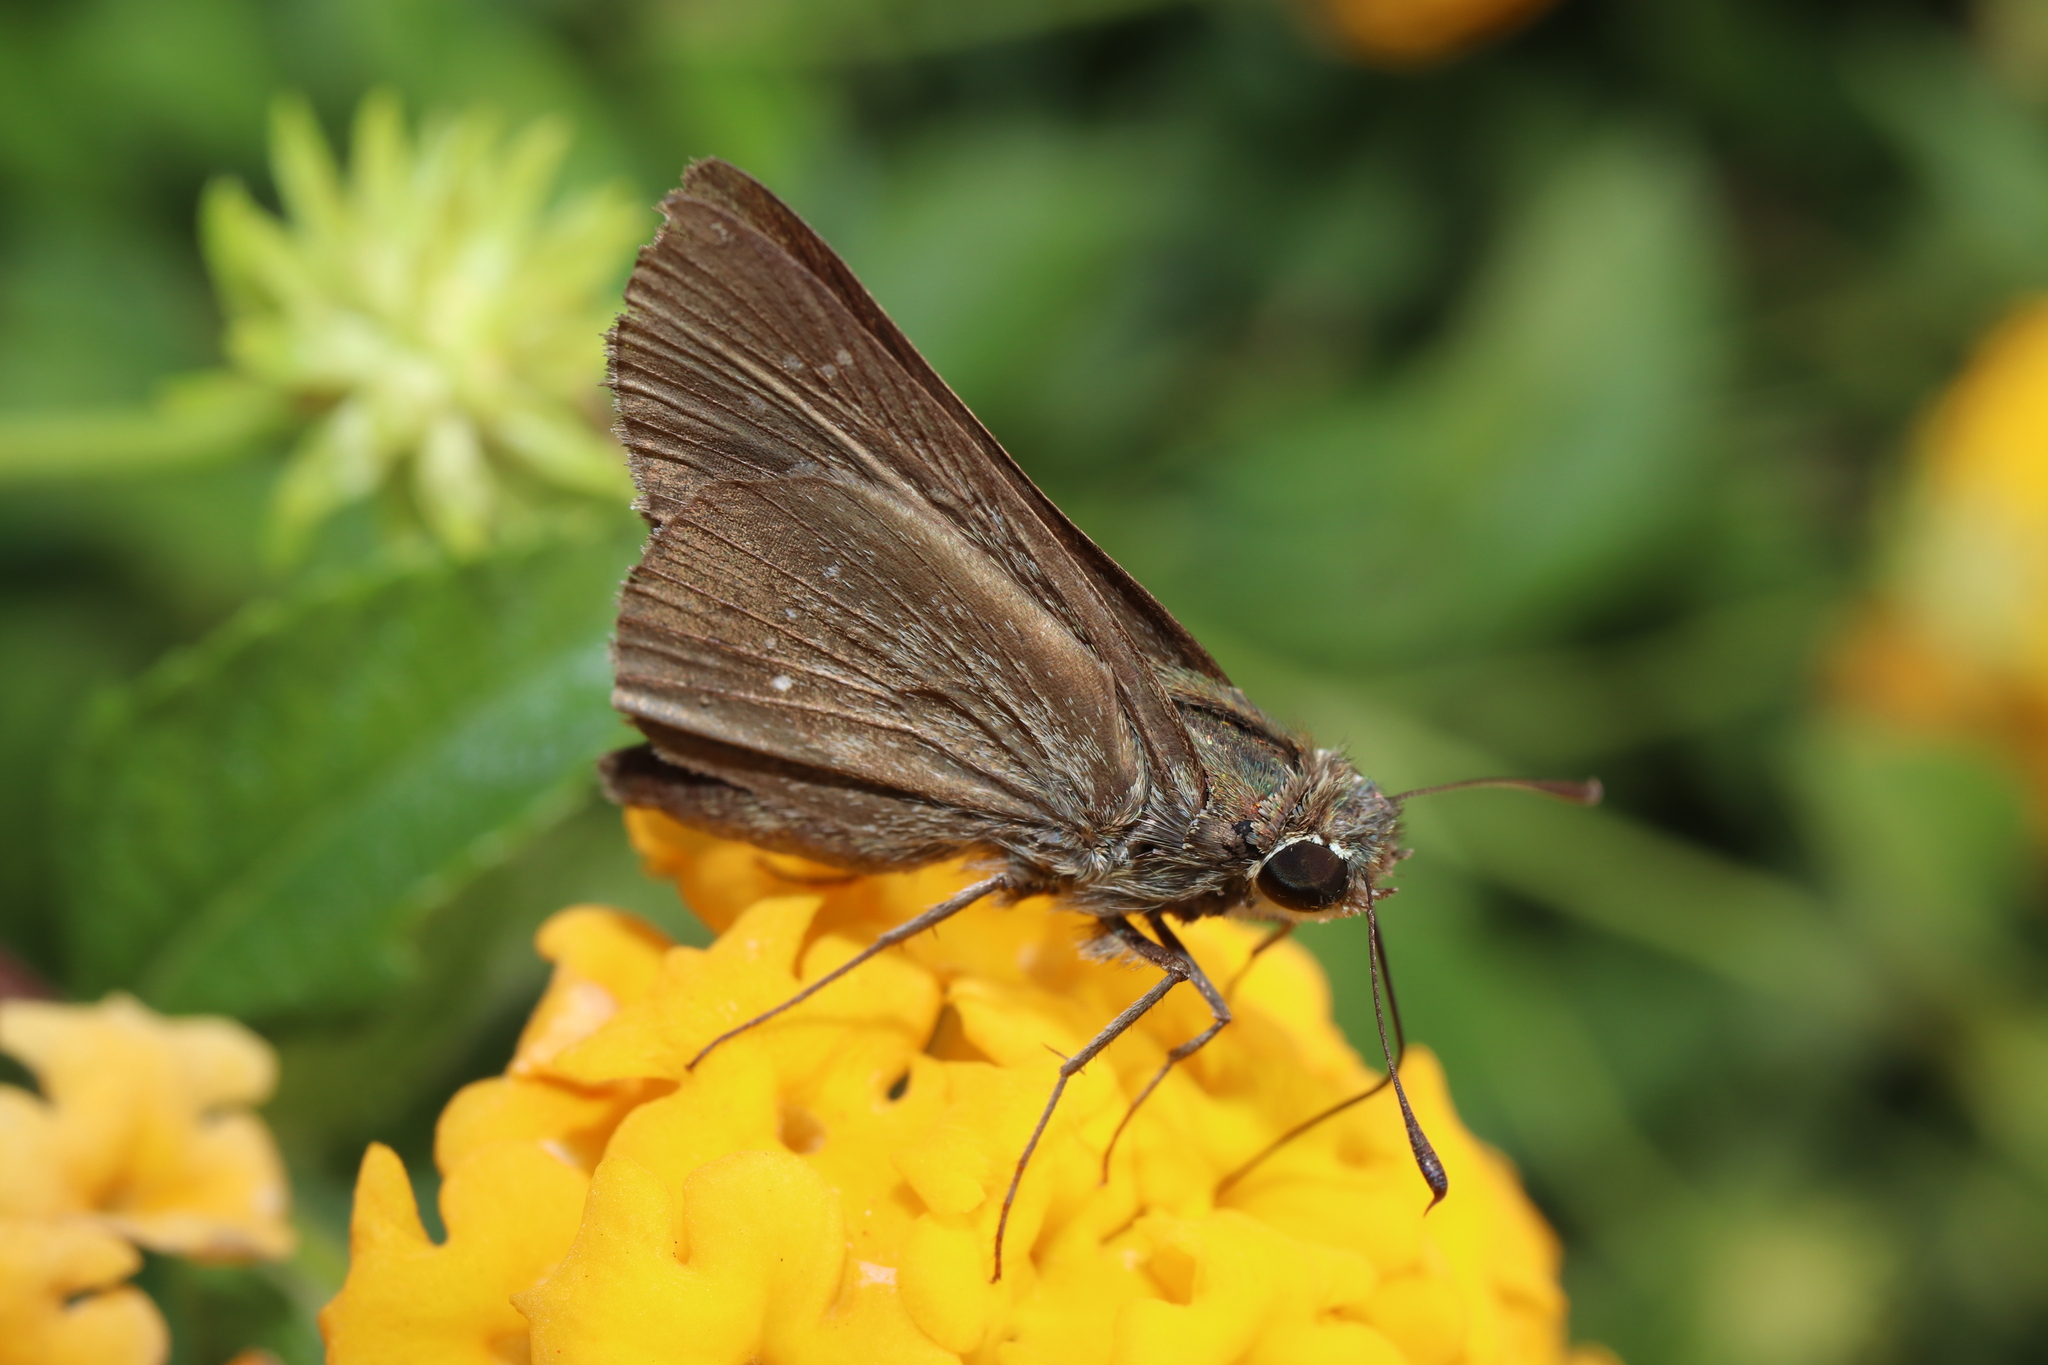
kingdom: Animalia
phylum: Arthropoda
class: Insecta
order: Lepidoptera
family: Hesperiidae
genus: Pelopidas
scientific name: Pelopidas mathias
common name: Black-branded swift
